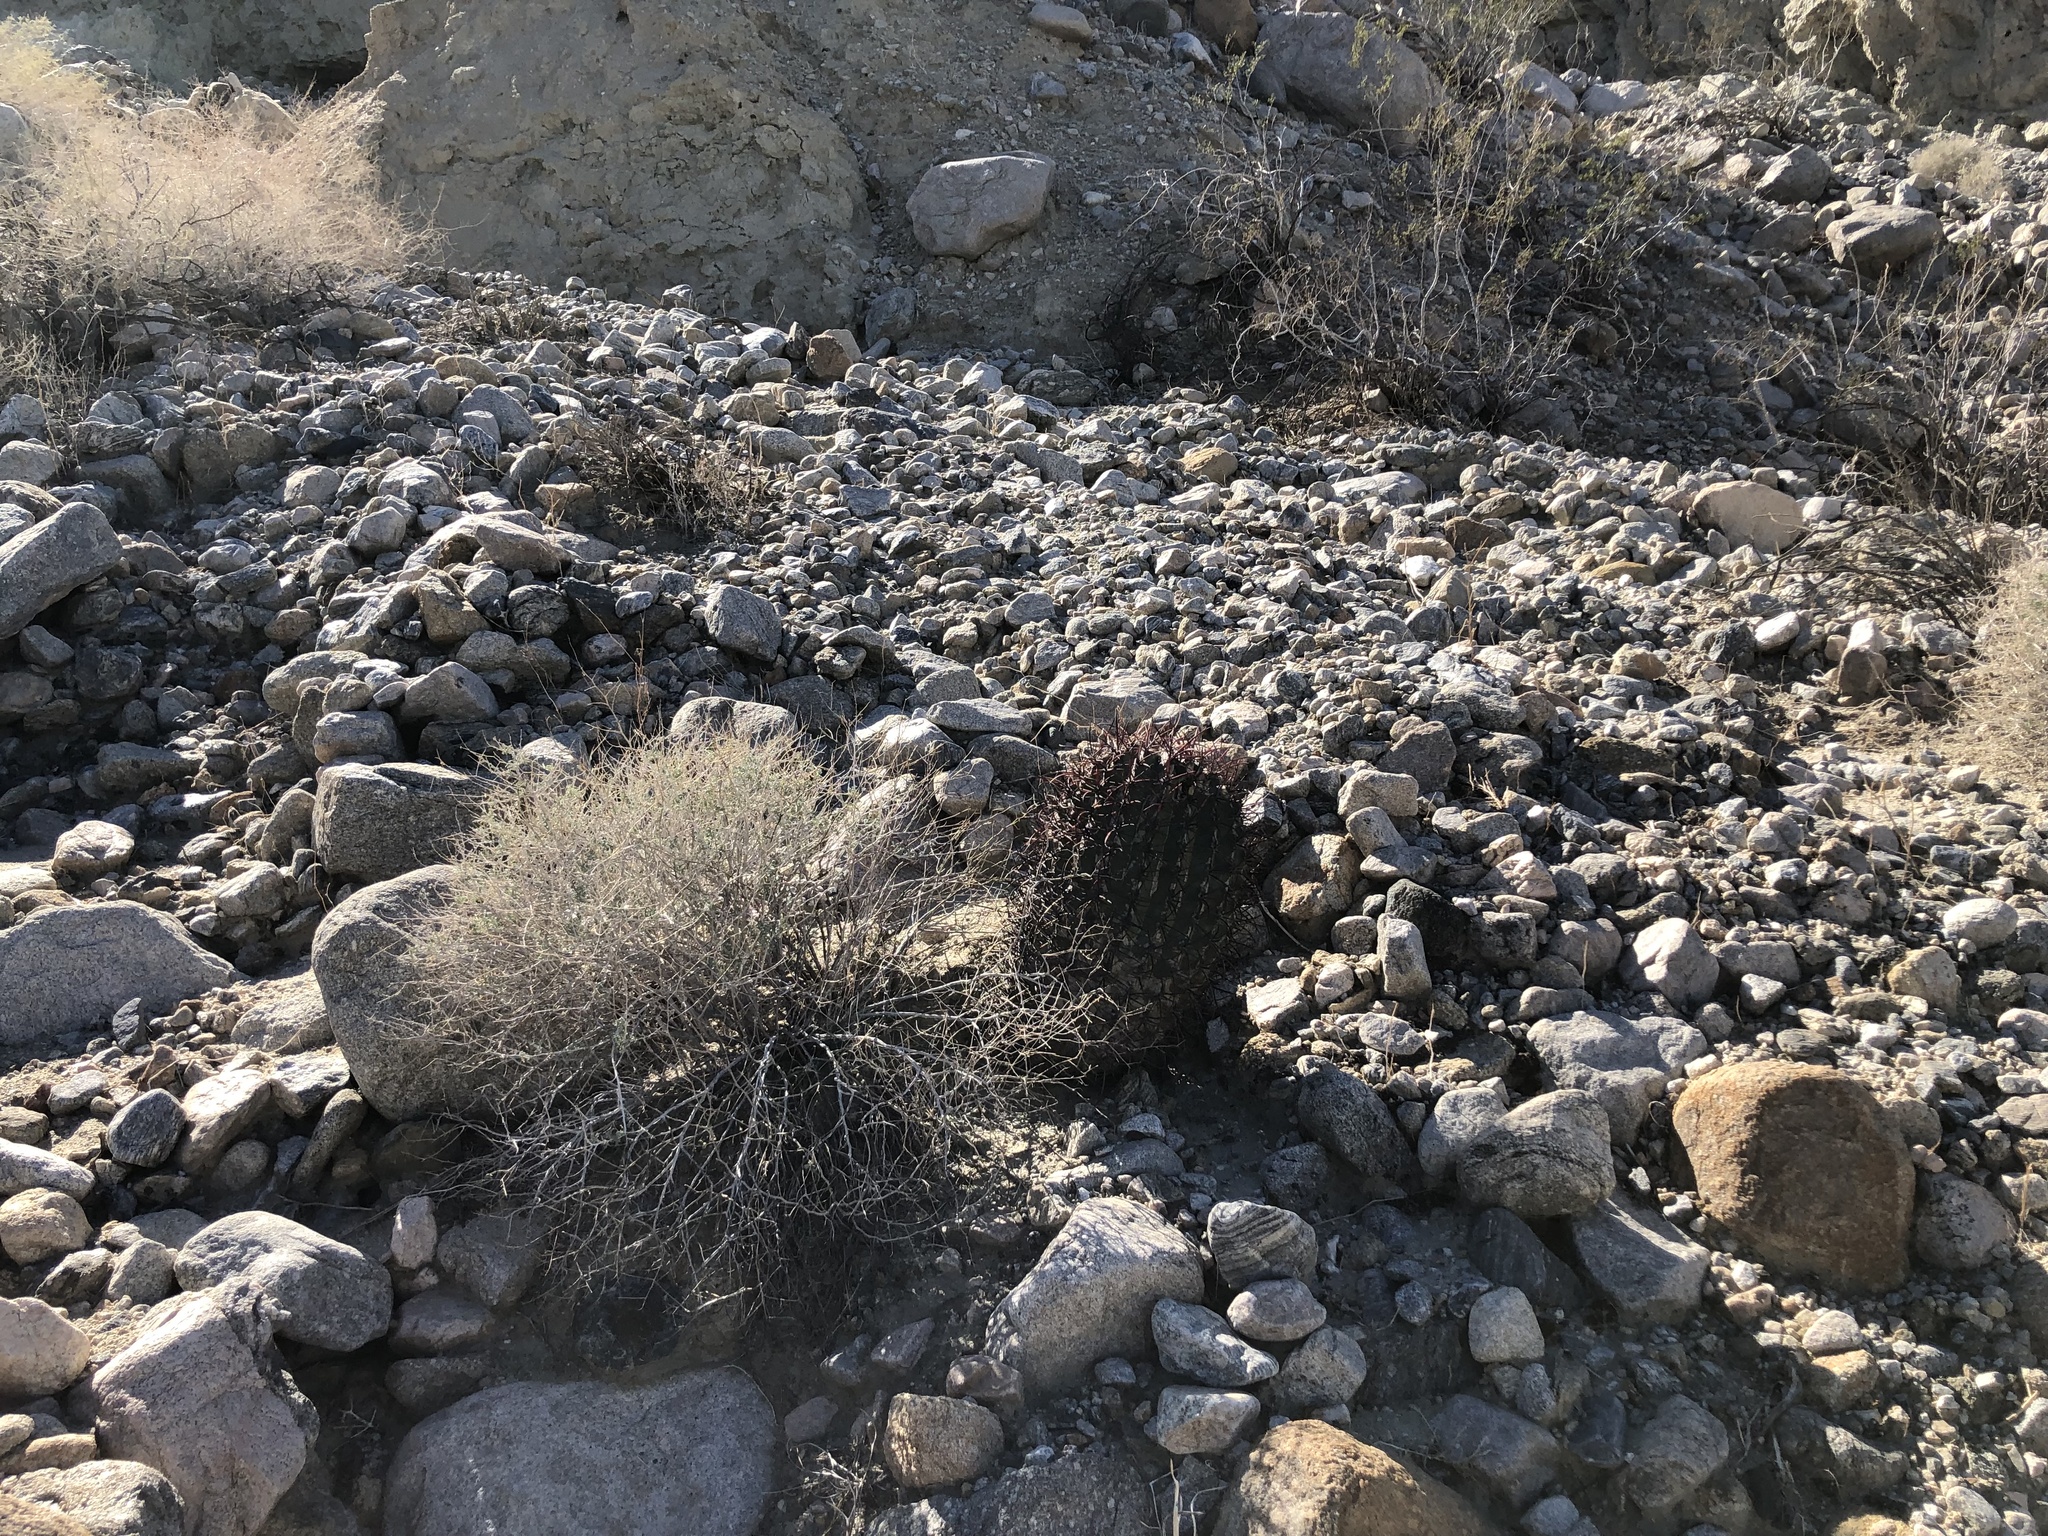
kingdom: Plantae
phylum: Tracheophyta
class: Magnoliopsida
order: Caryophyllales
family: Cactaceae
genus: Ferocactus
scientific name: Ferocactus cylindraceus
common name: California barrel cactus
